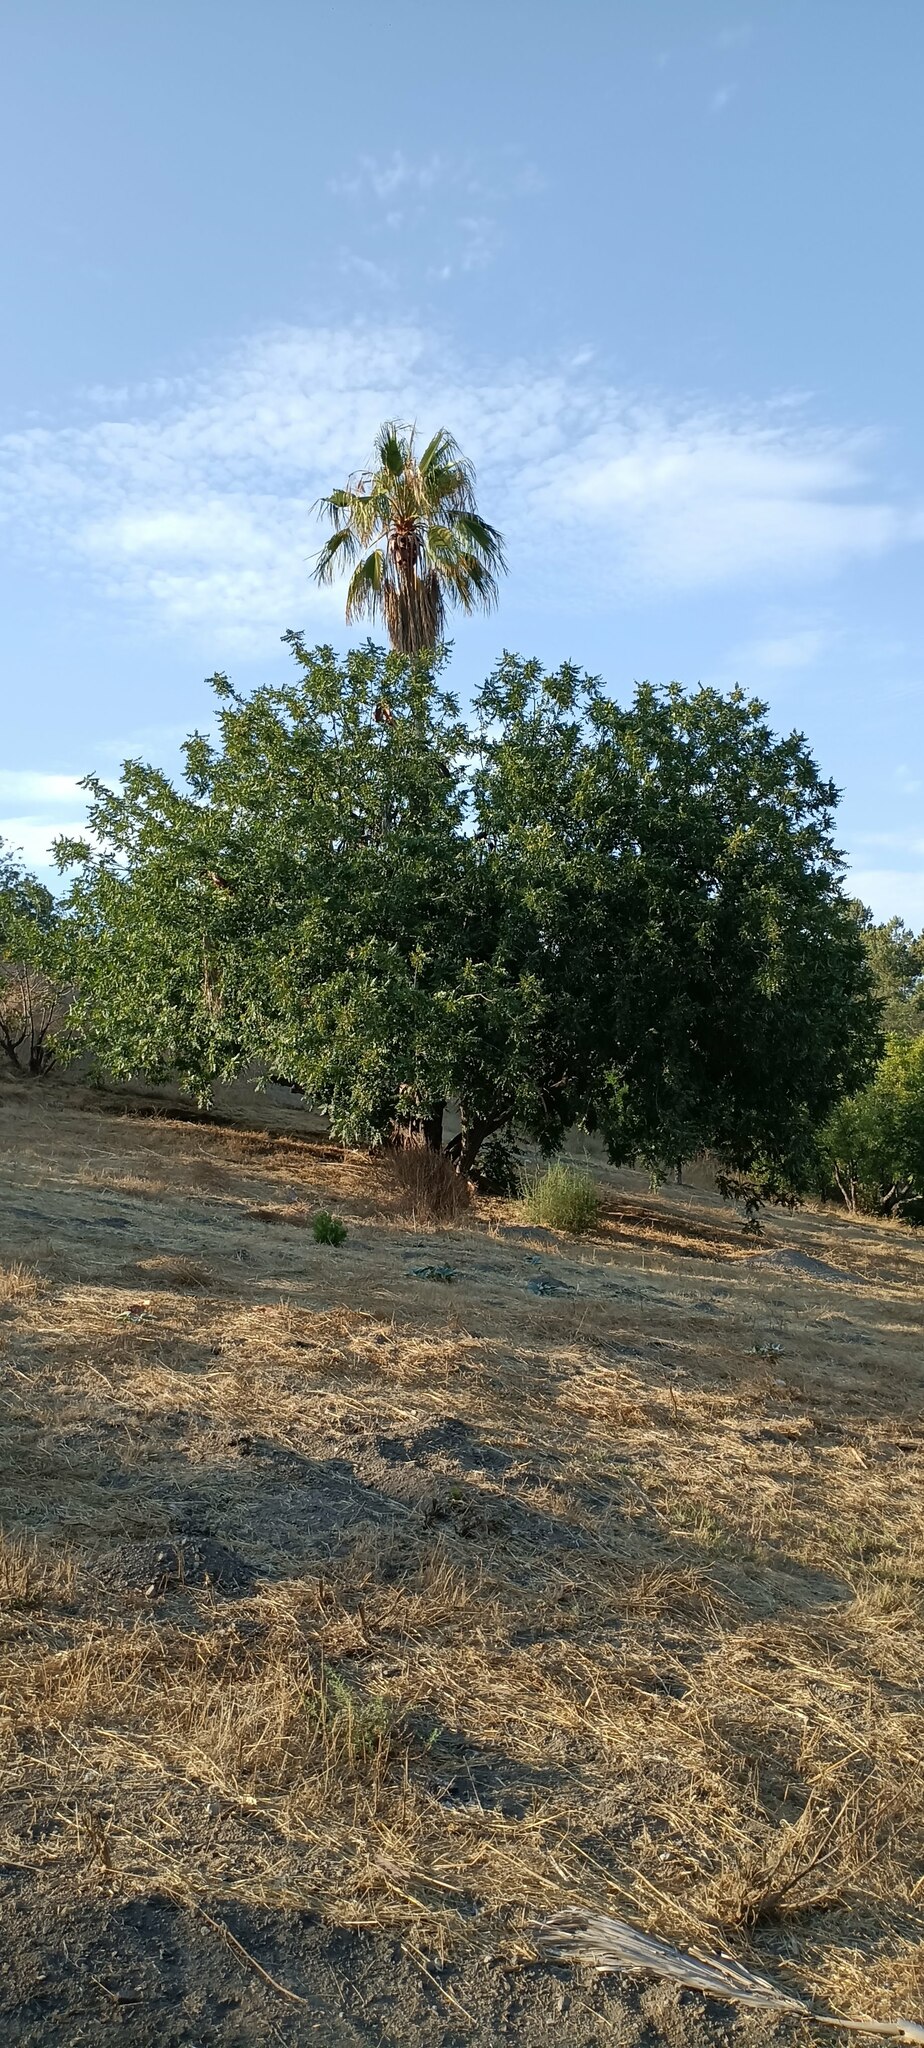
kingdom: Plantae
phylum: Tracheophyta
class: Magnoliopsida
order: Fagales
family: Juglandaceae
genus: Juglans
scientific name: Juglans californica
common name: Southern california black walnut
